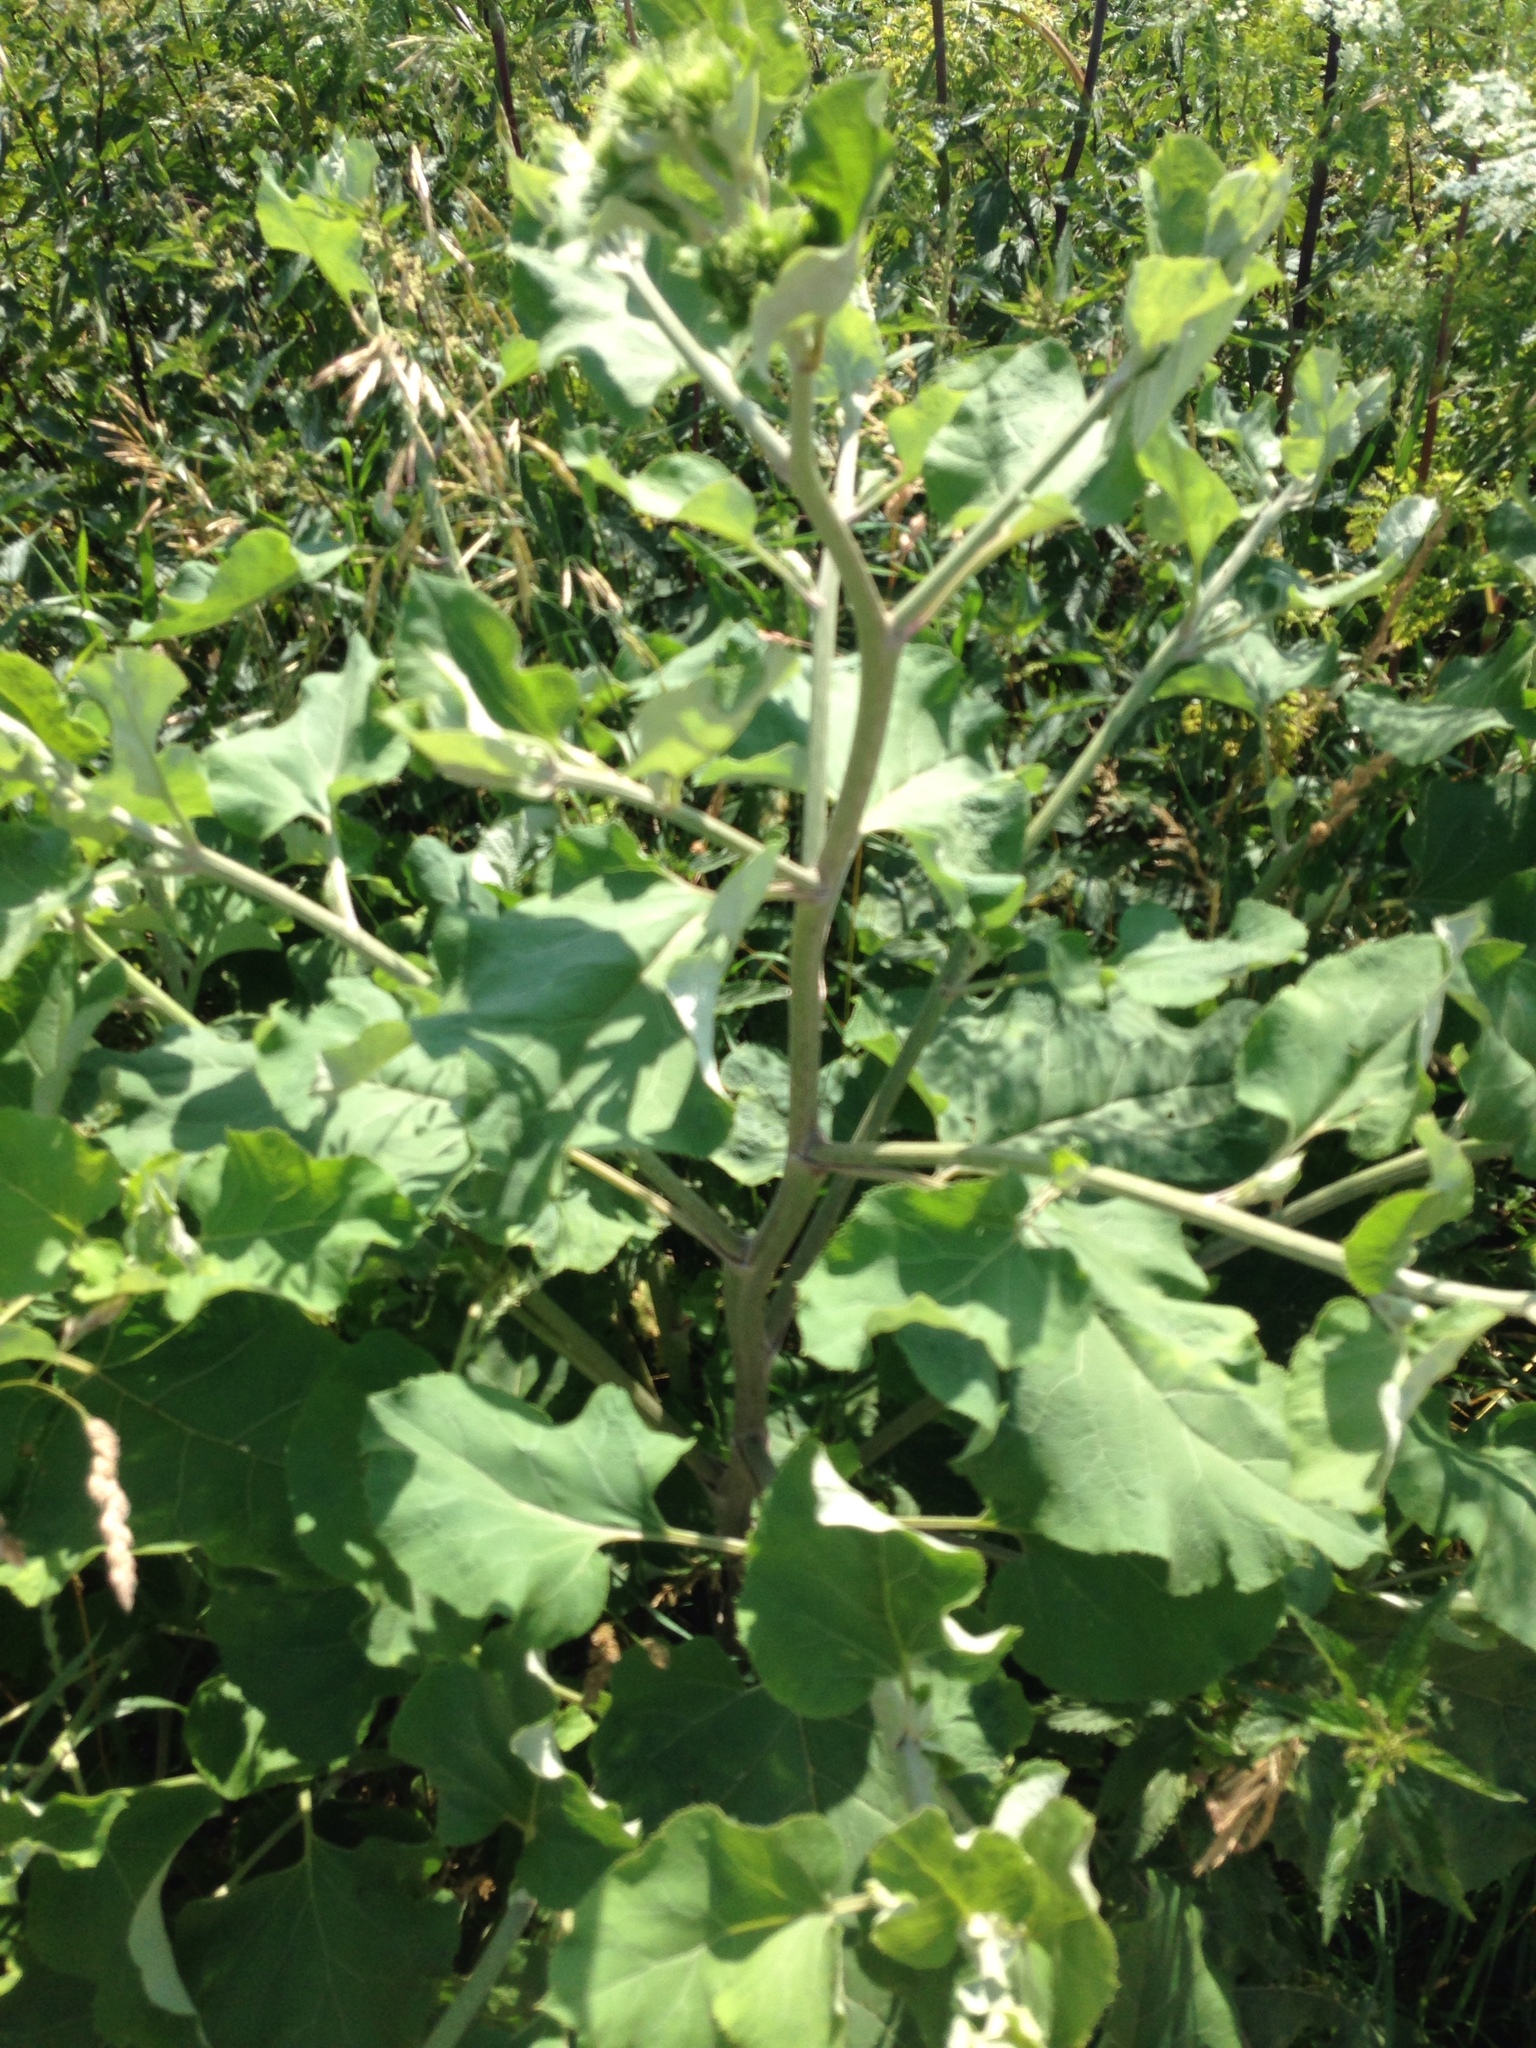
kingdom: Plantae
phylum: Tracheophyta
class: Magnoliopsida
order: Asterales
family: Asteraceae
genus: Arctium
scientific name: Arctium lappa
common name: Greater burdock
